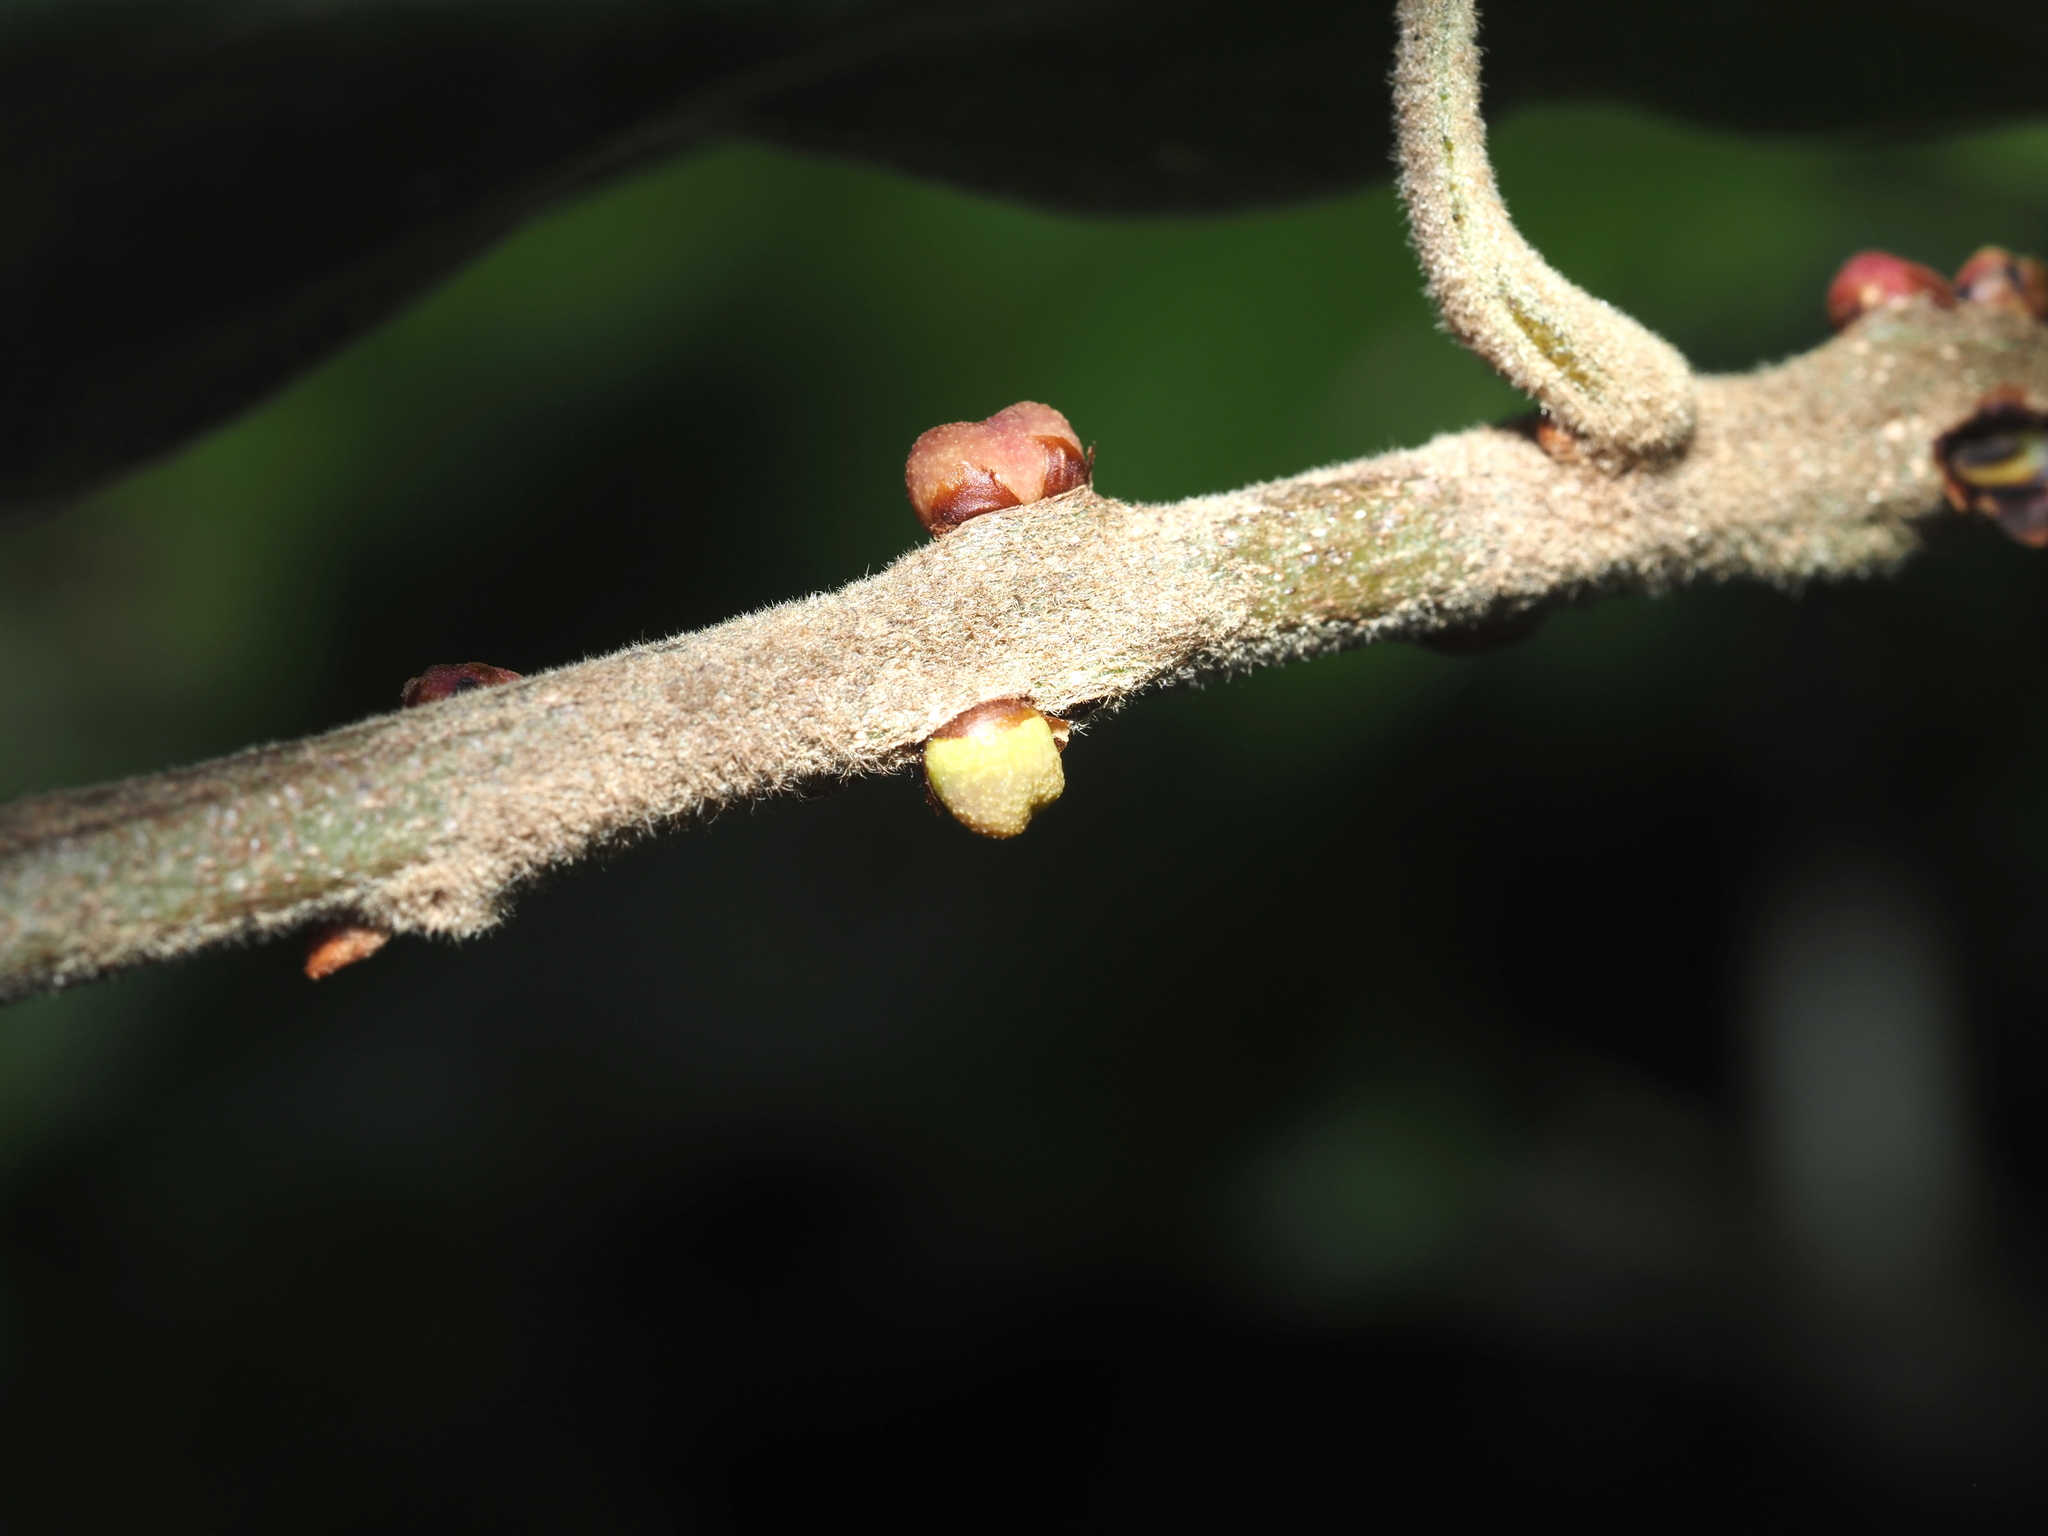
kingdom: Animalia
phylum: Arthropoda
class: Insecta
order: Hymenoptera
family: Cynipidae
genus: Kokkocynips
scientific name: Kokkocynips imbricariae
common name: Banded bullet gall wasp
